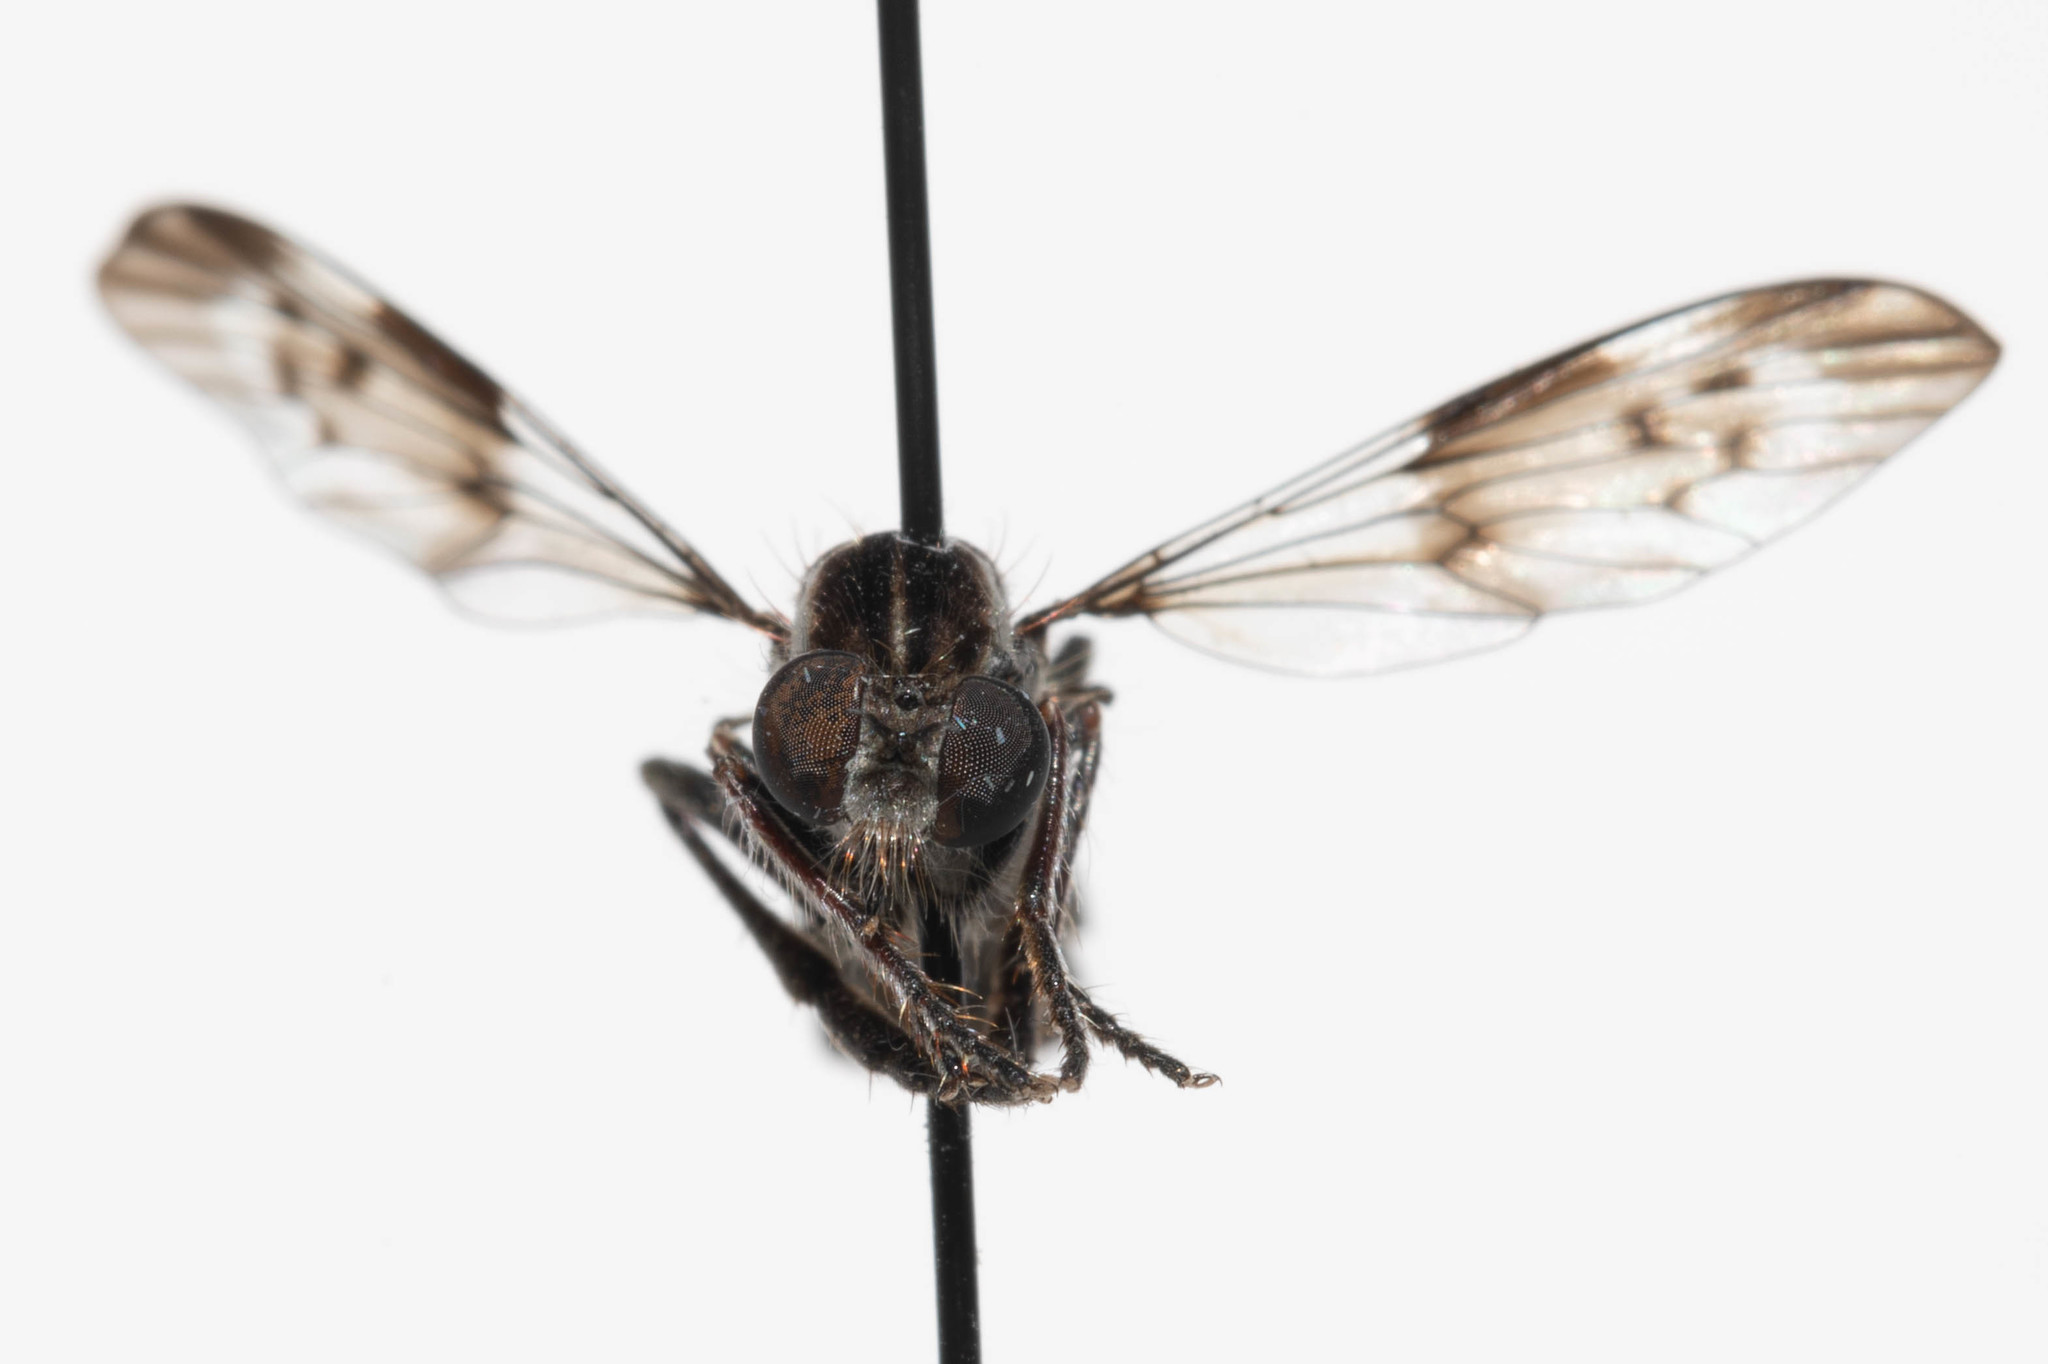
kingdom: Animalia
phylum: Arthropoda
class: Insecta
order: Diptera
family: Asilidae
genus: Nicocles
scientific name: Nicocles dives
